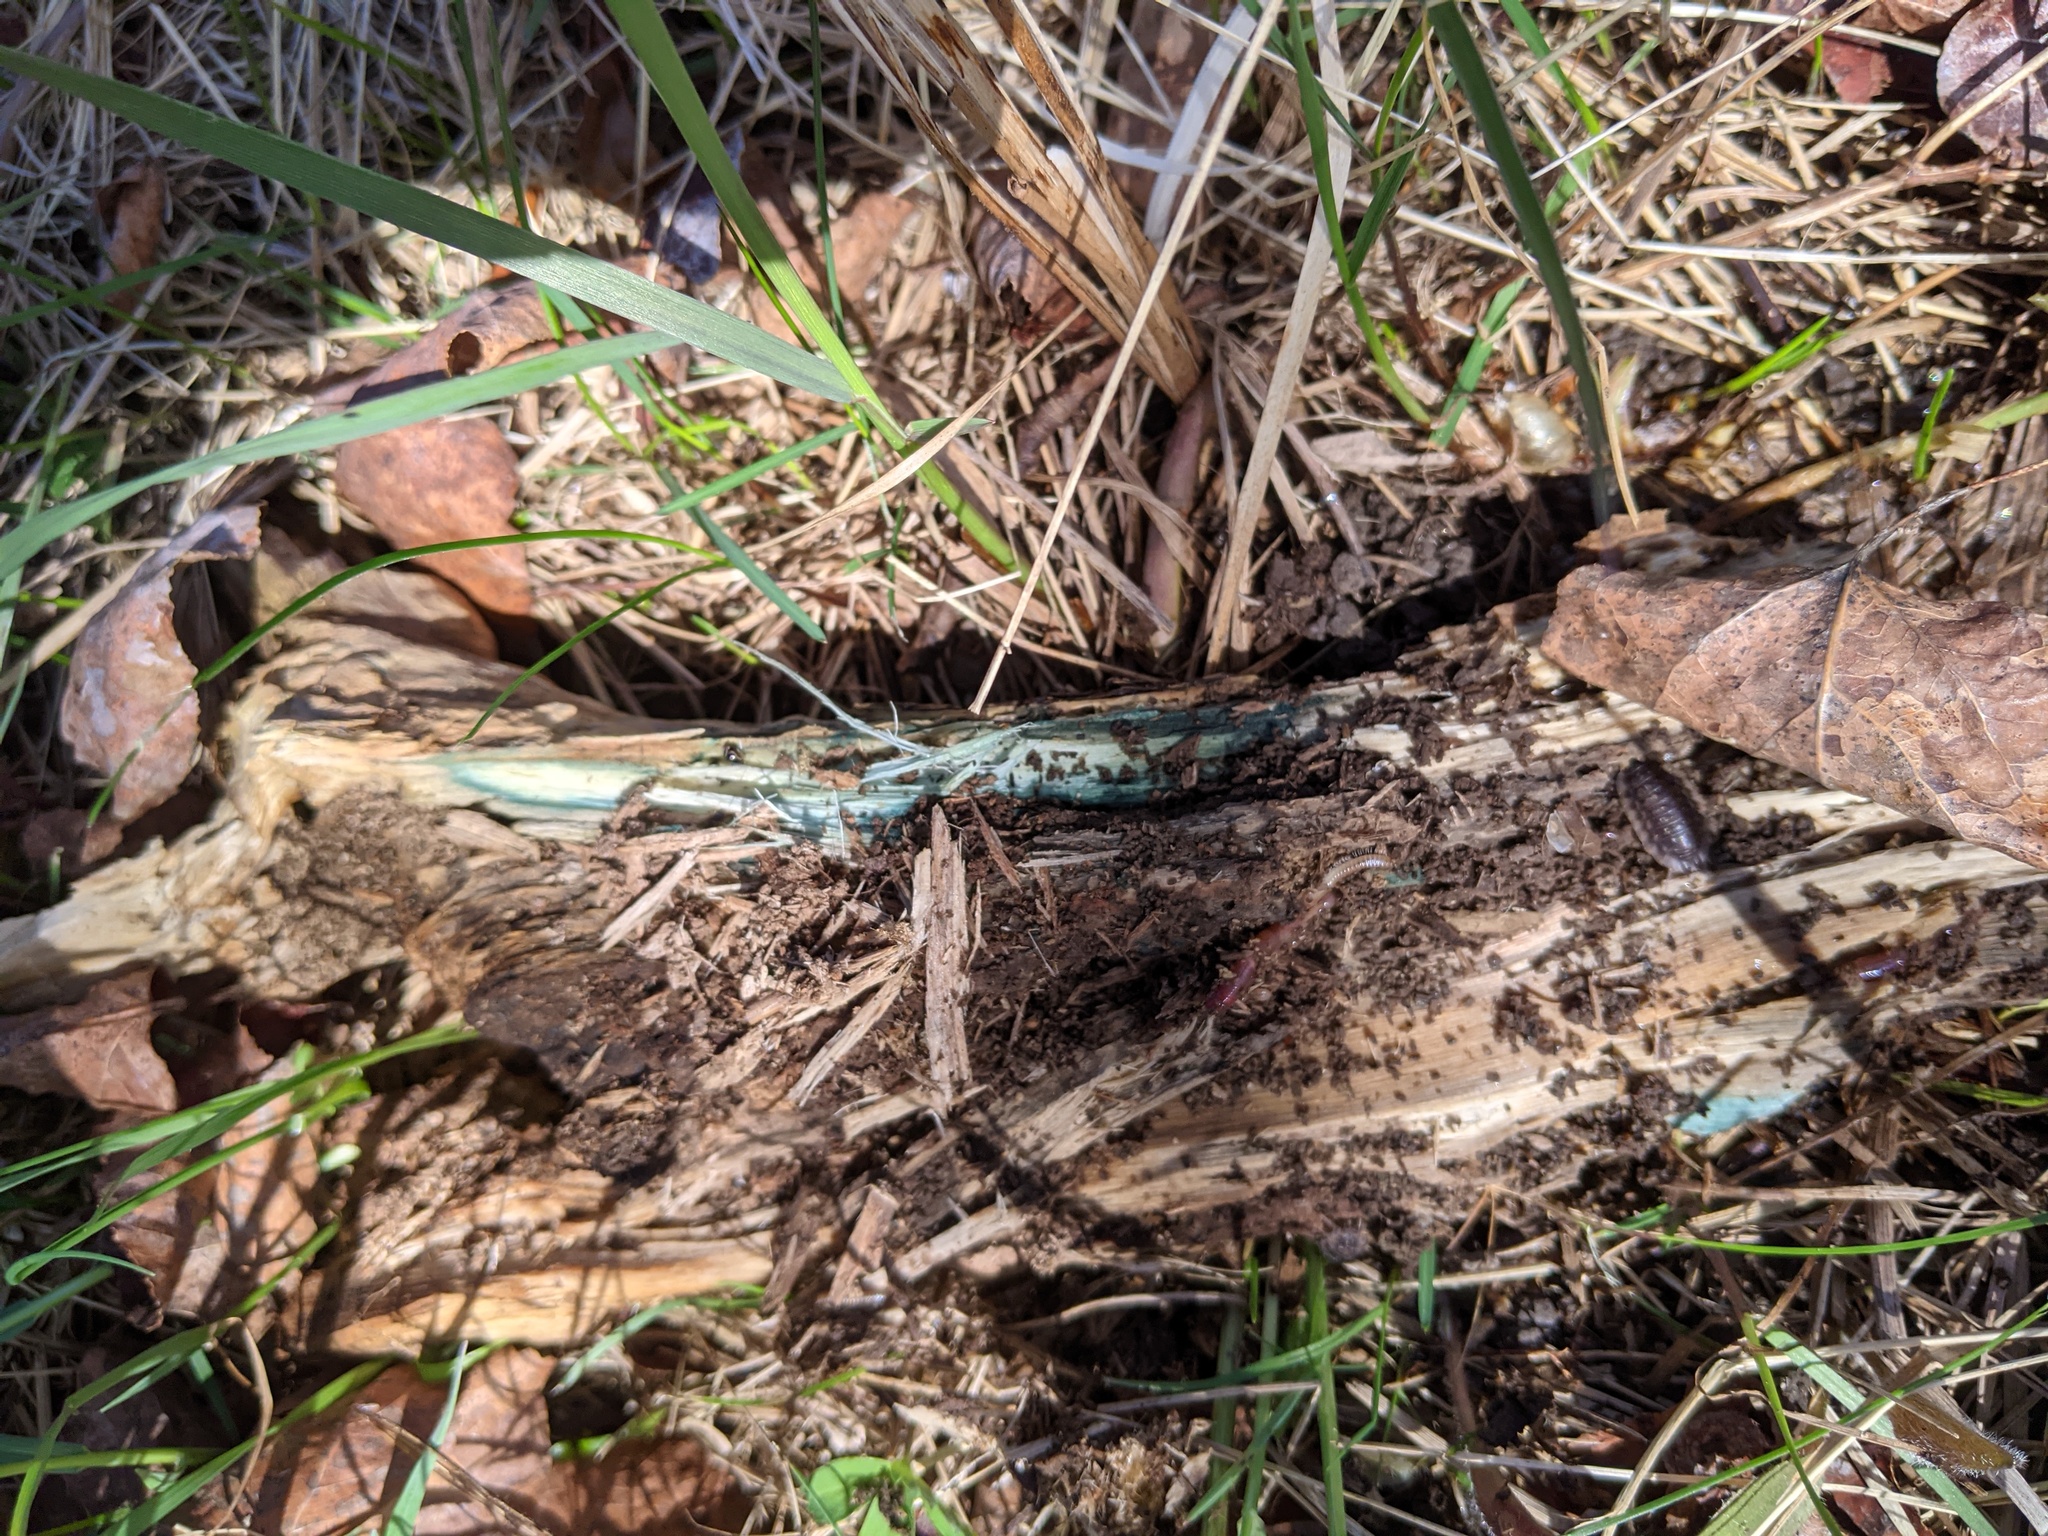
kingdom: Fungi
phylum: Ascomycota
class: Leotiomycetes
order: Helotiales
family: Chlorociboriaceae
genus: Chlorociboria
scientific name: Chlorociboria
